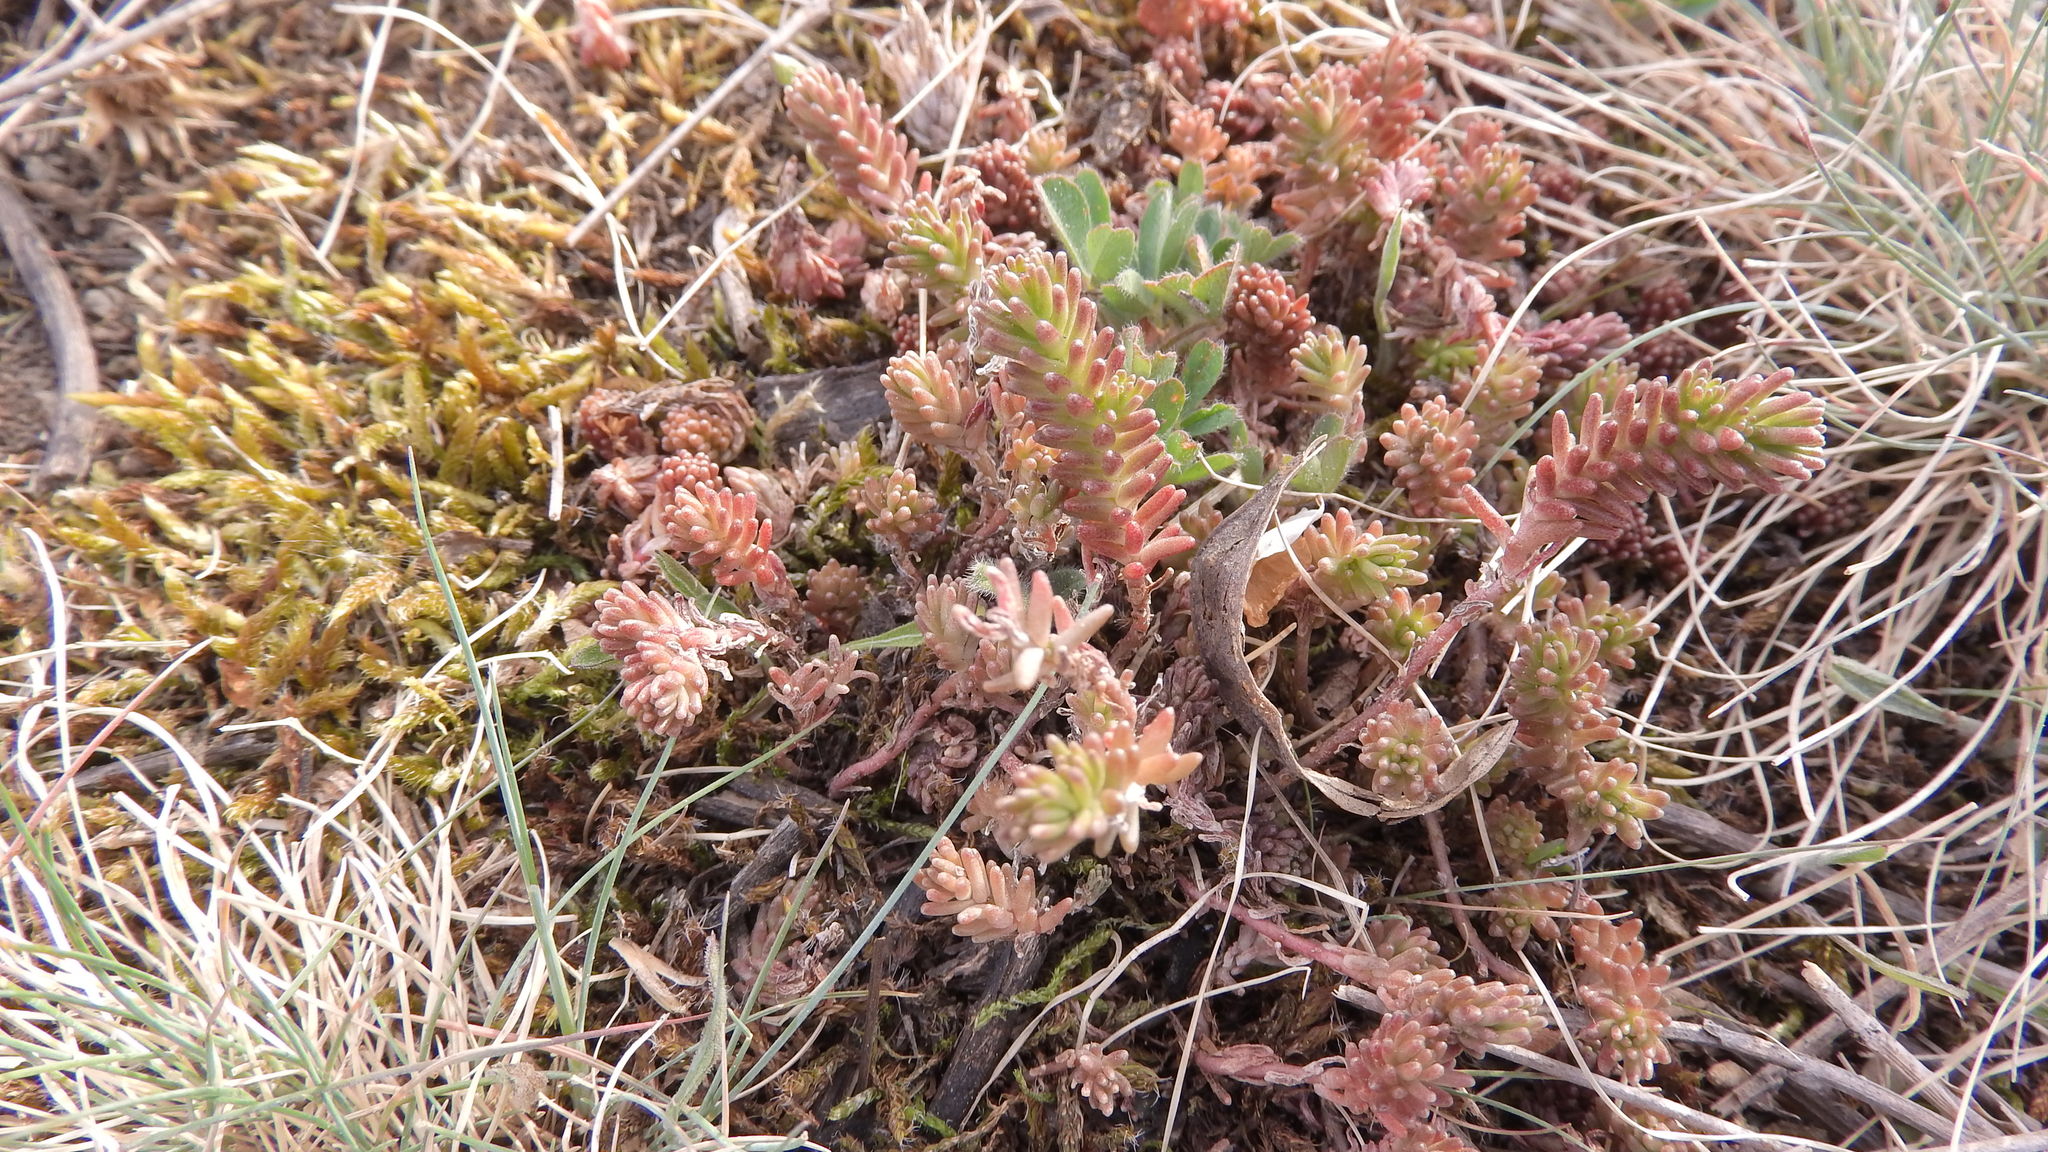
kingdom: Plantae
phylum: Tracheophyta
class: Magnoliopsida
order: Saxifragales
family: Crassulaceae
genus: Sedum
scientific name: Sedum sexangulare
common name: Tasteless stonecrop
